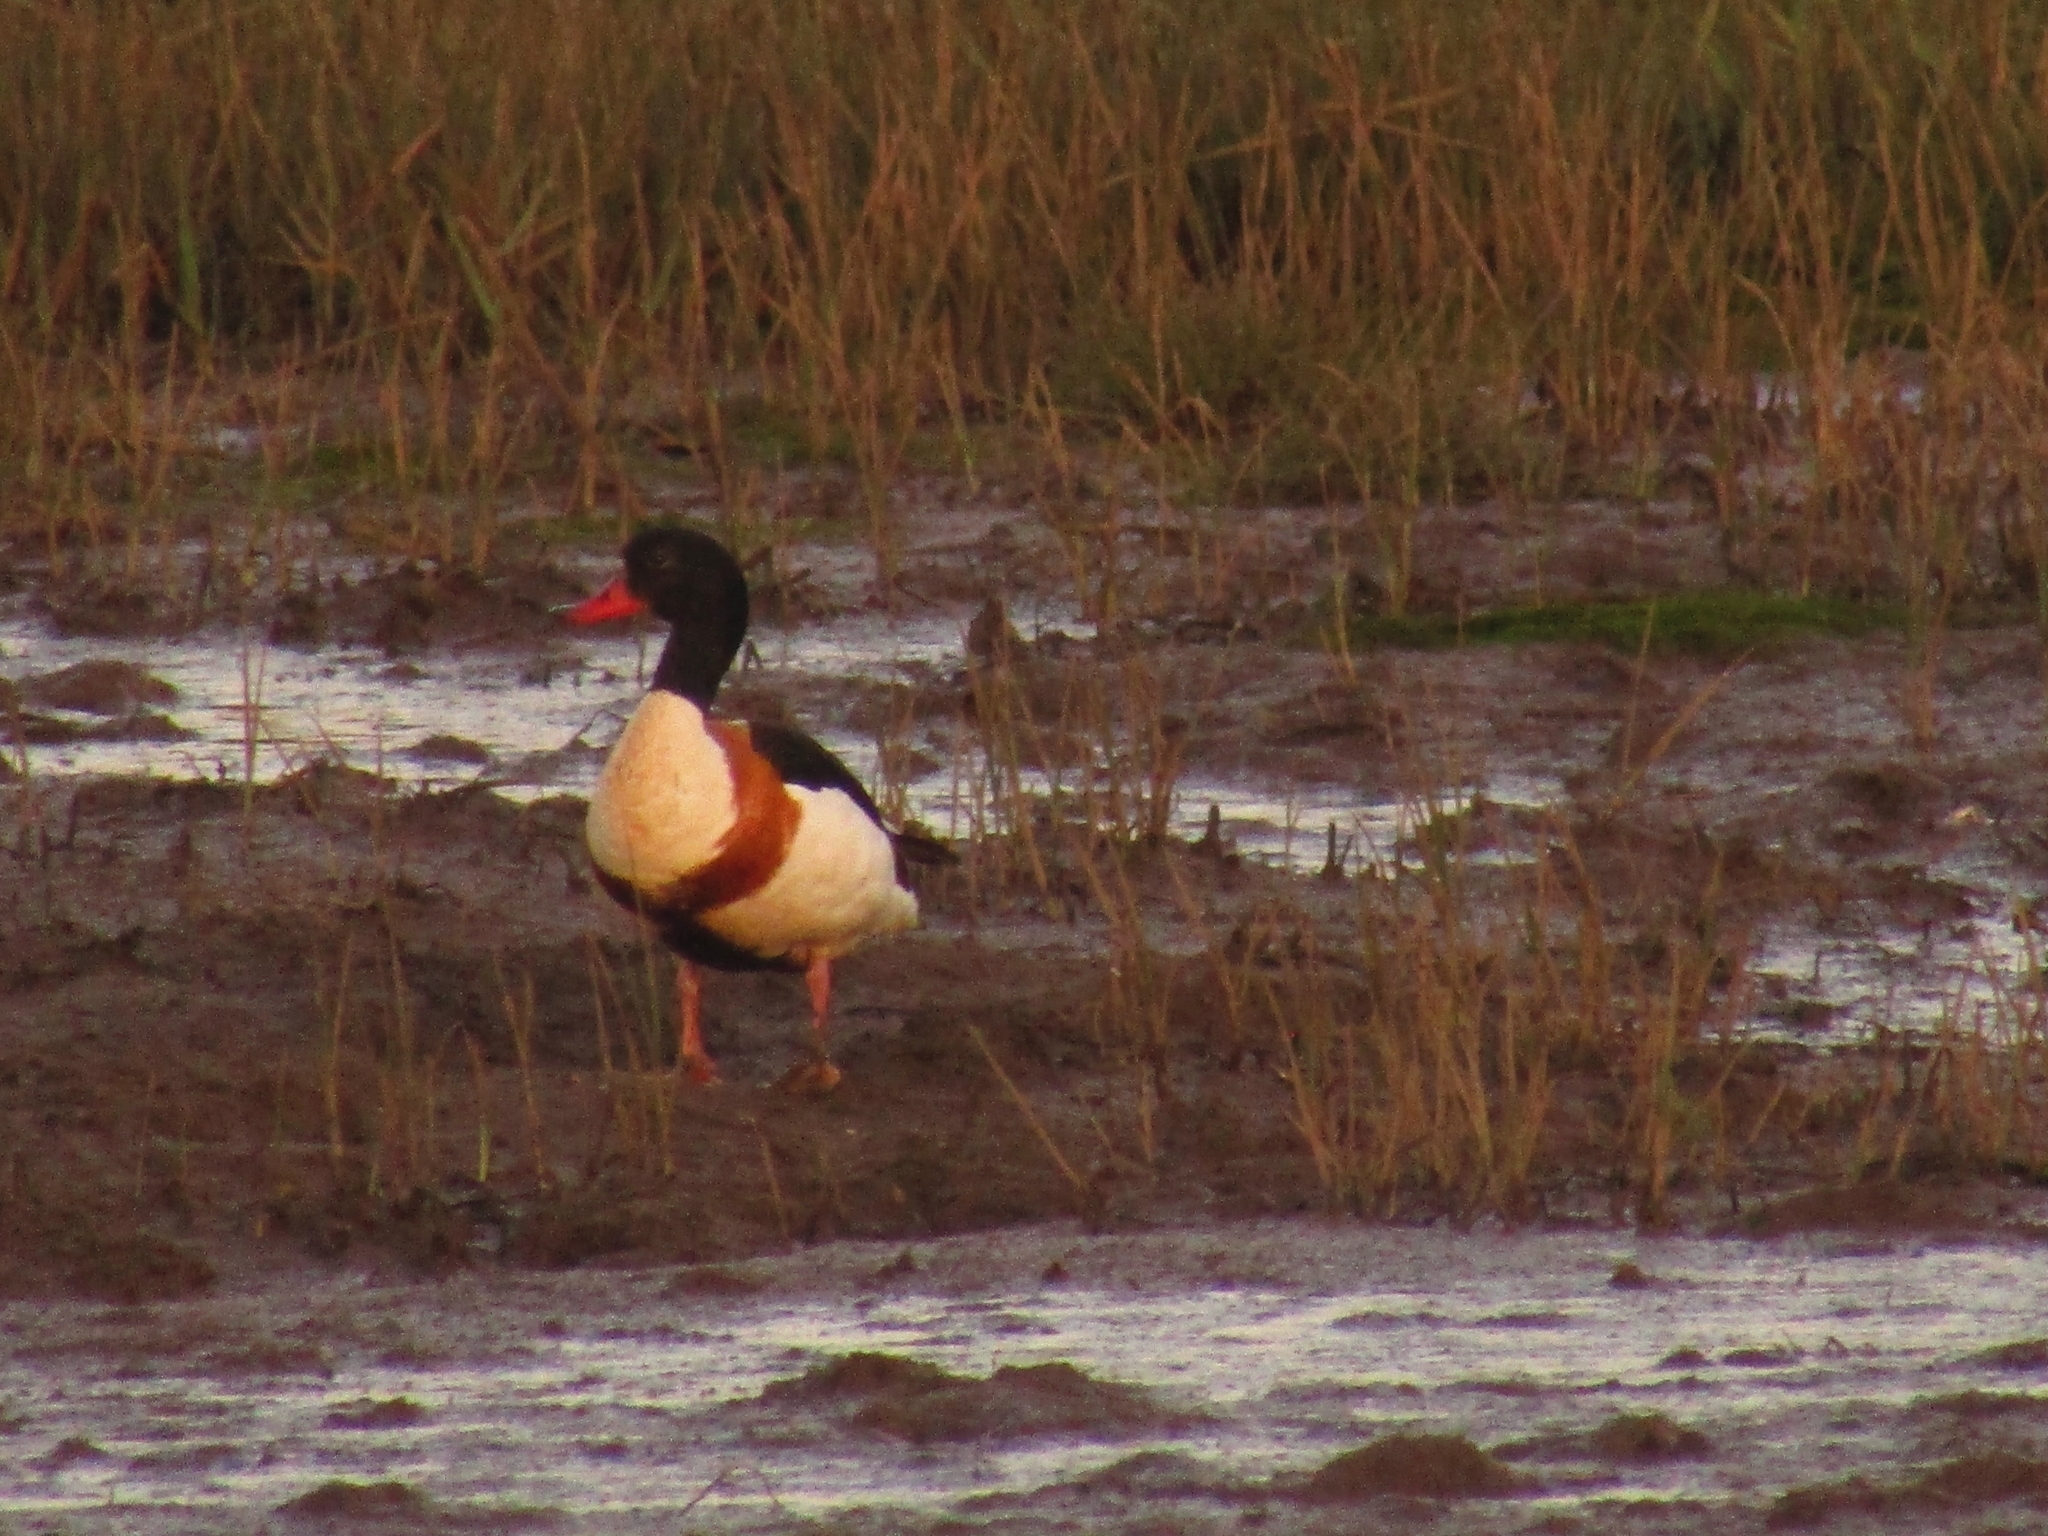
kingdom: Animalia
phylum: Chordata
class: Aves
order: Anseriformes
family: Anatidae
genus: Tadorna
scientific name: Tadorna tadorna
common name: Common shelduck
